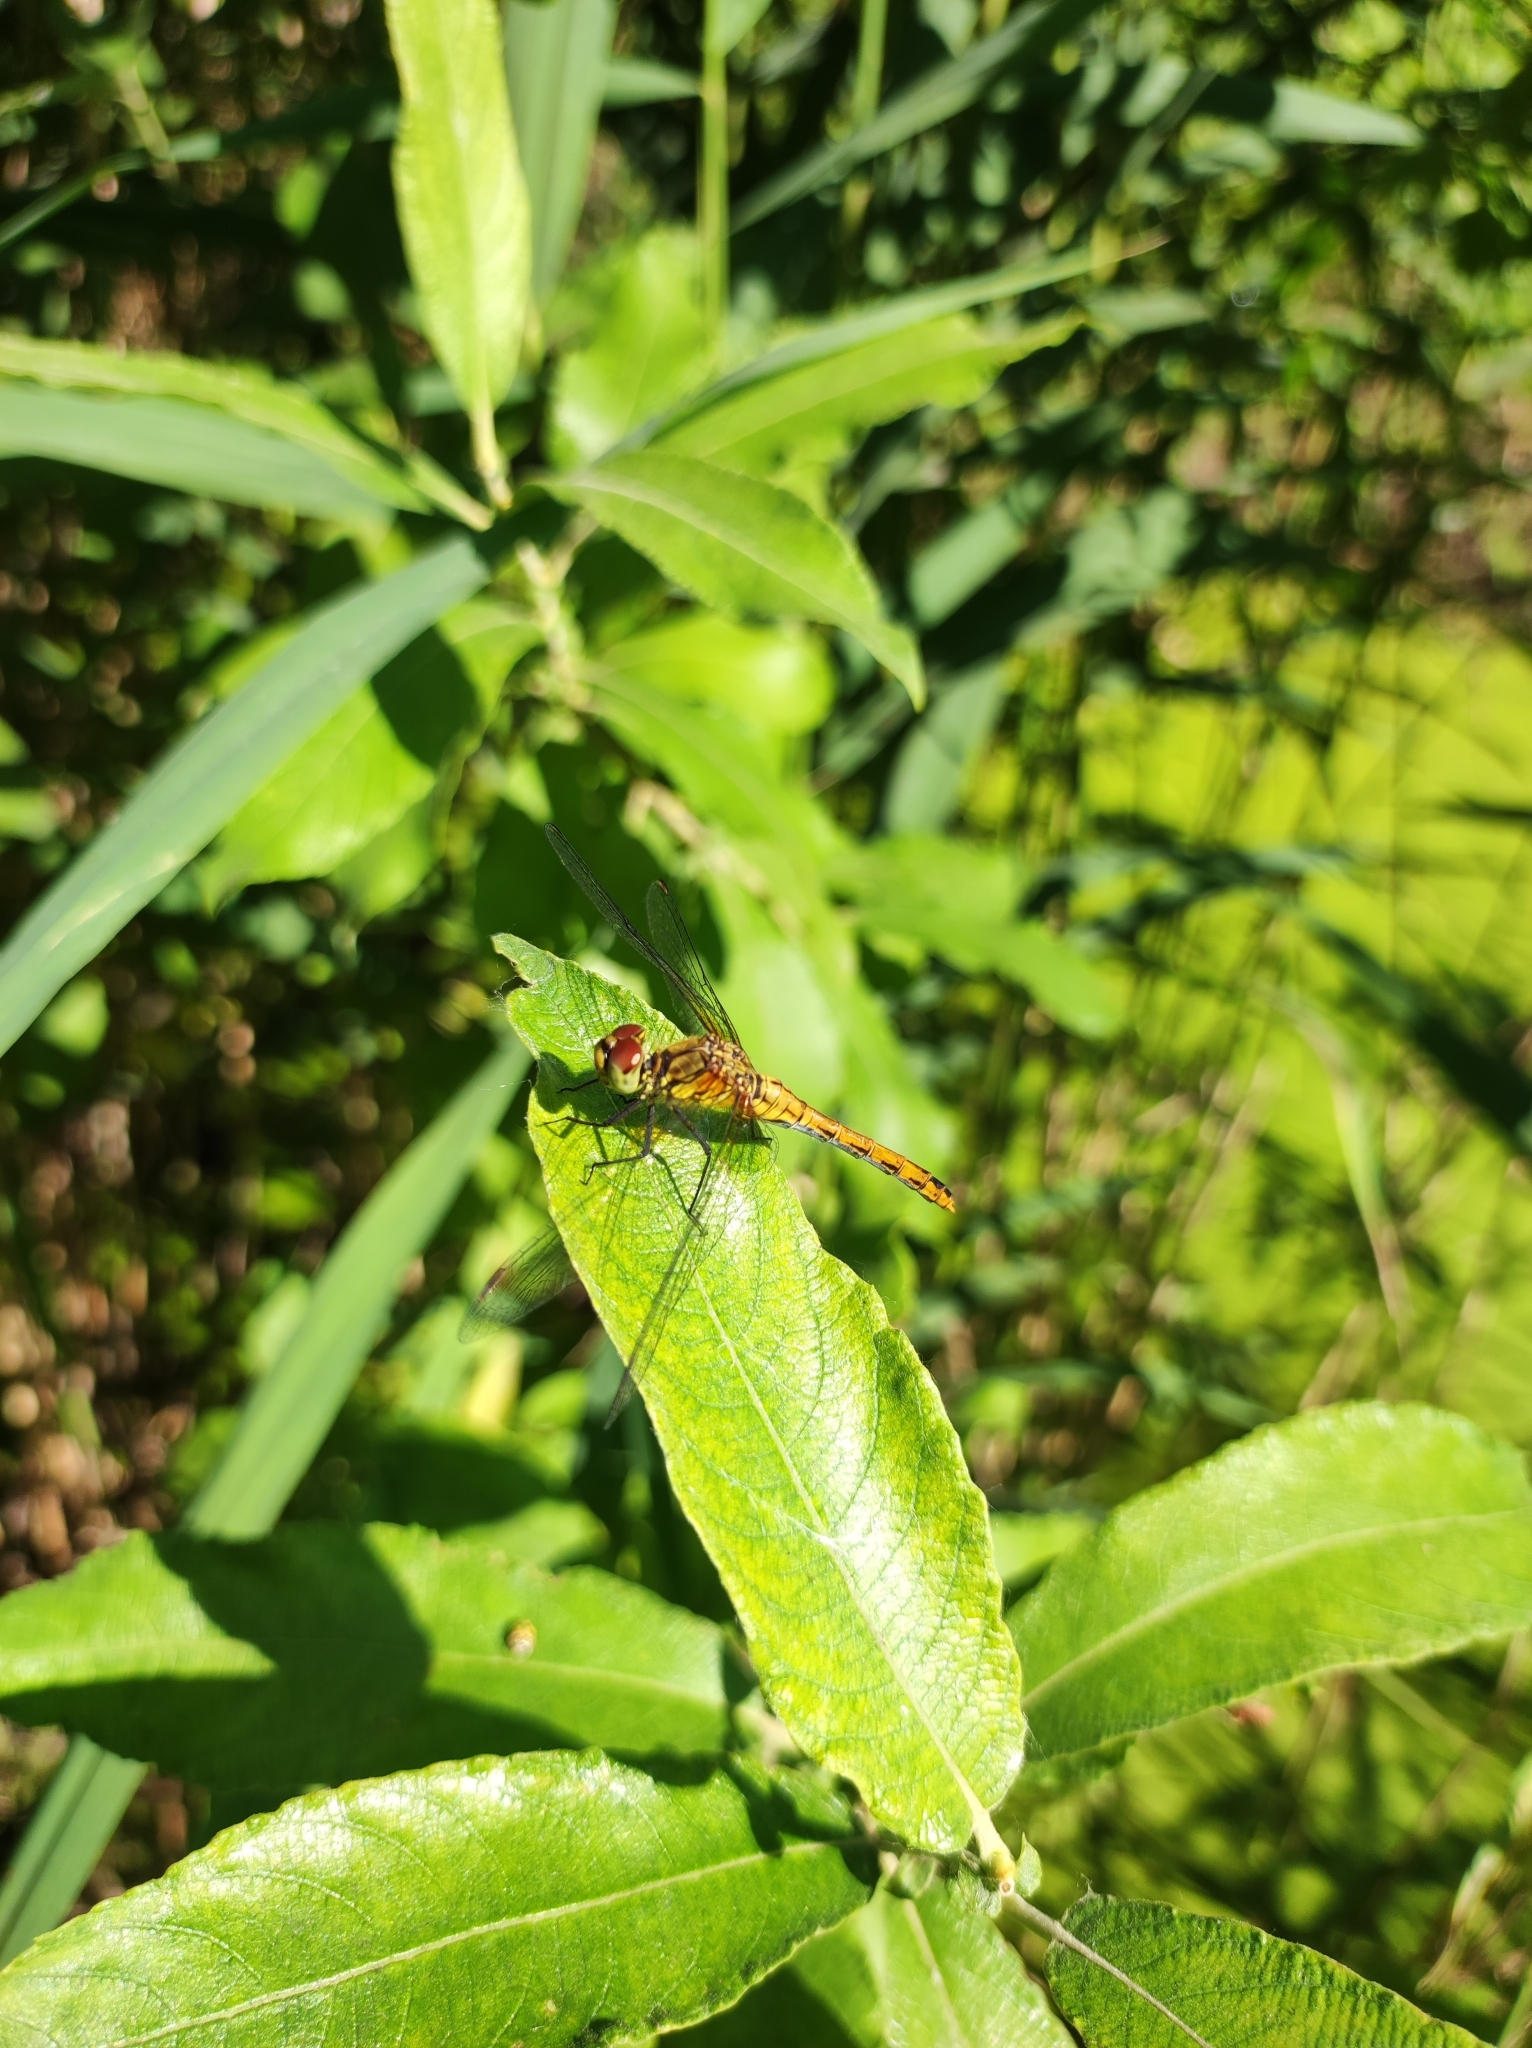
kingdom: Animalia
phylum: Arthropoda
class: Insecta
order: Odonata
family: Libellulidae
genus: Sympetrum
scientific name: Sympetrum sanguineum
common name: Ruddy darter
